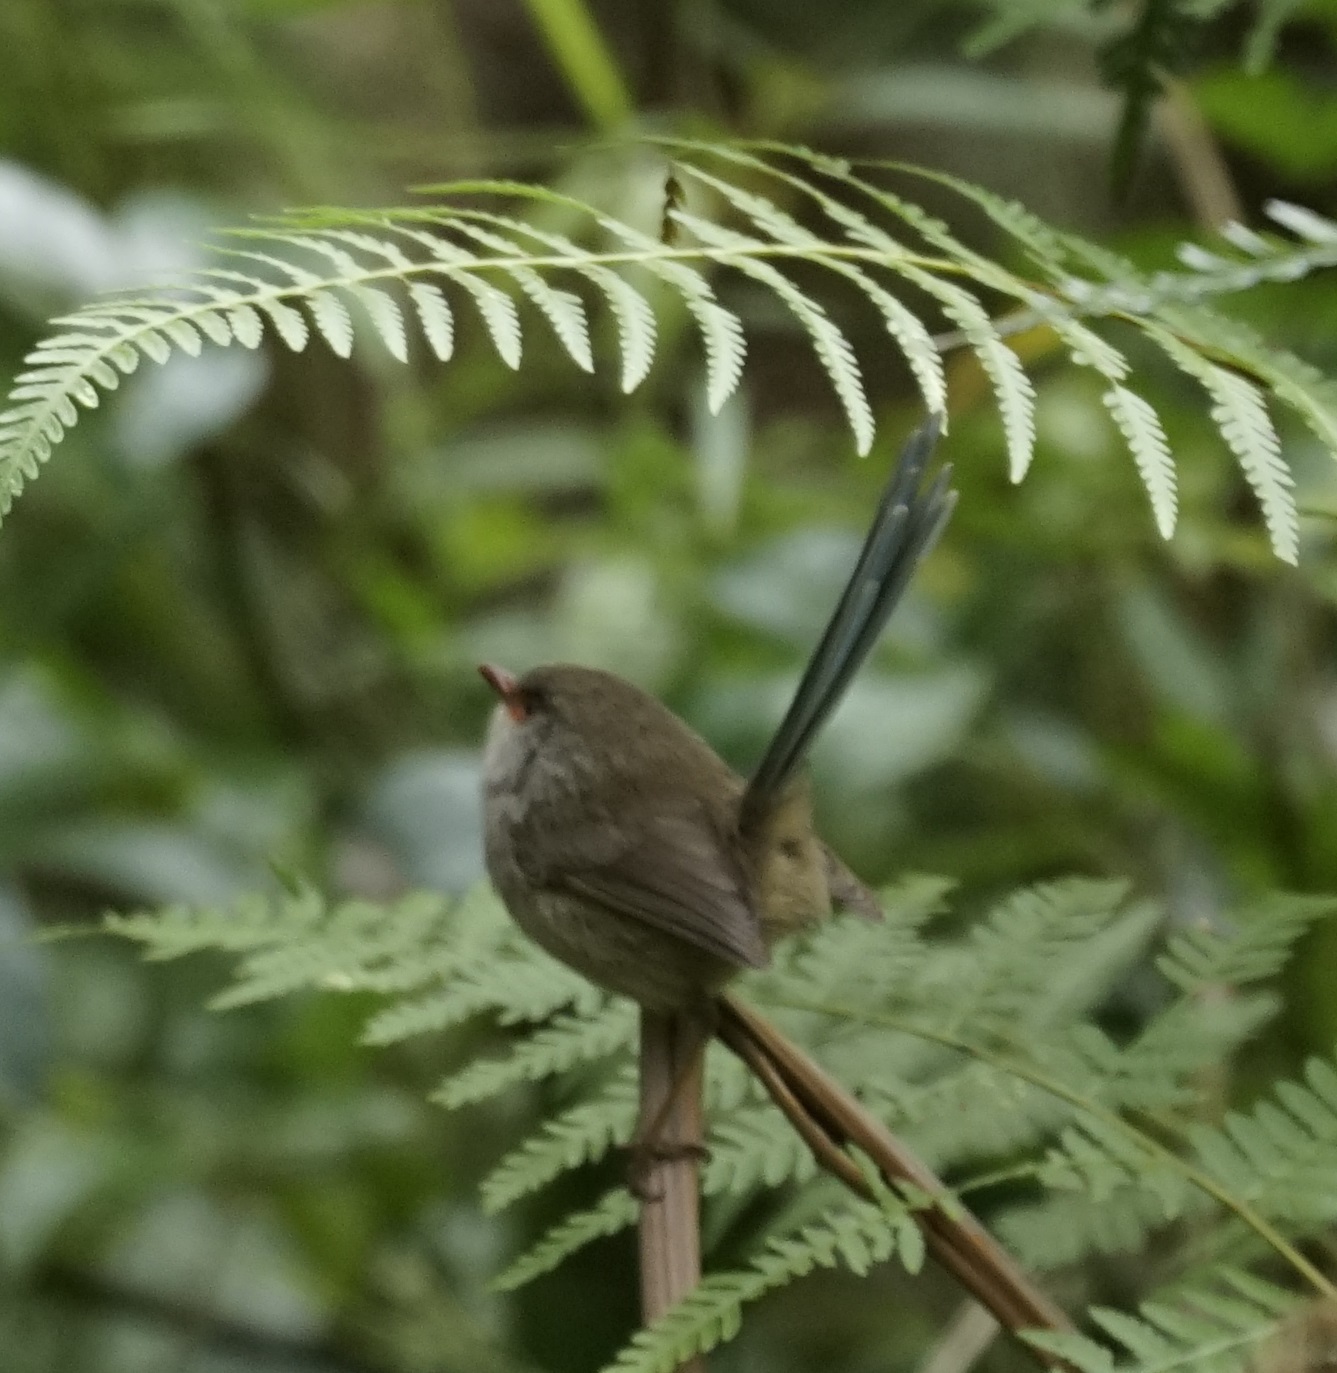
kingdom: Animalia
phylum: Chordata
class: Aves
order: Passeriformes
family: Maluridae
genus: Malurus
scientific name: Malurus cyaneus
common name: Superb fairywren
